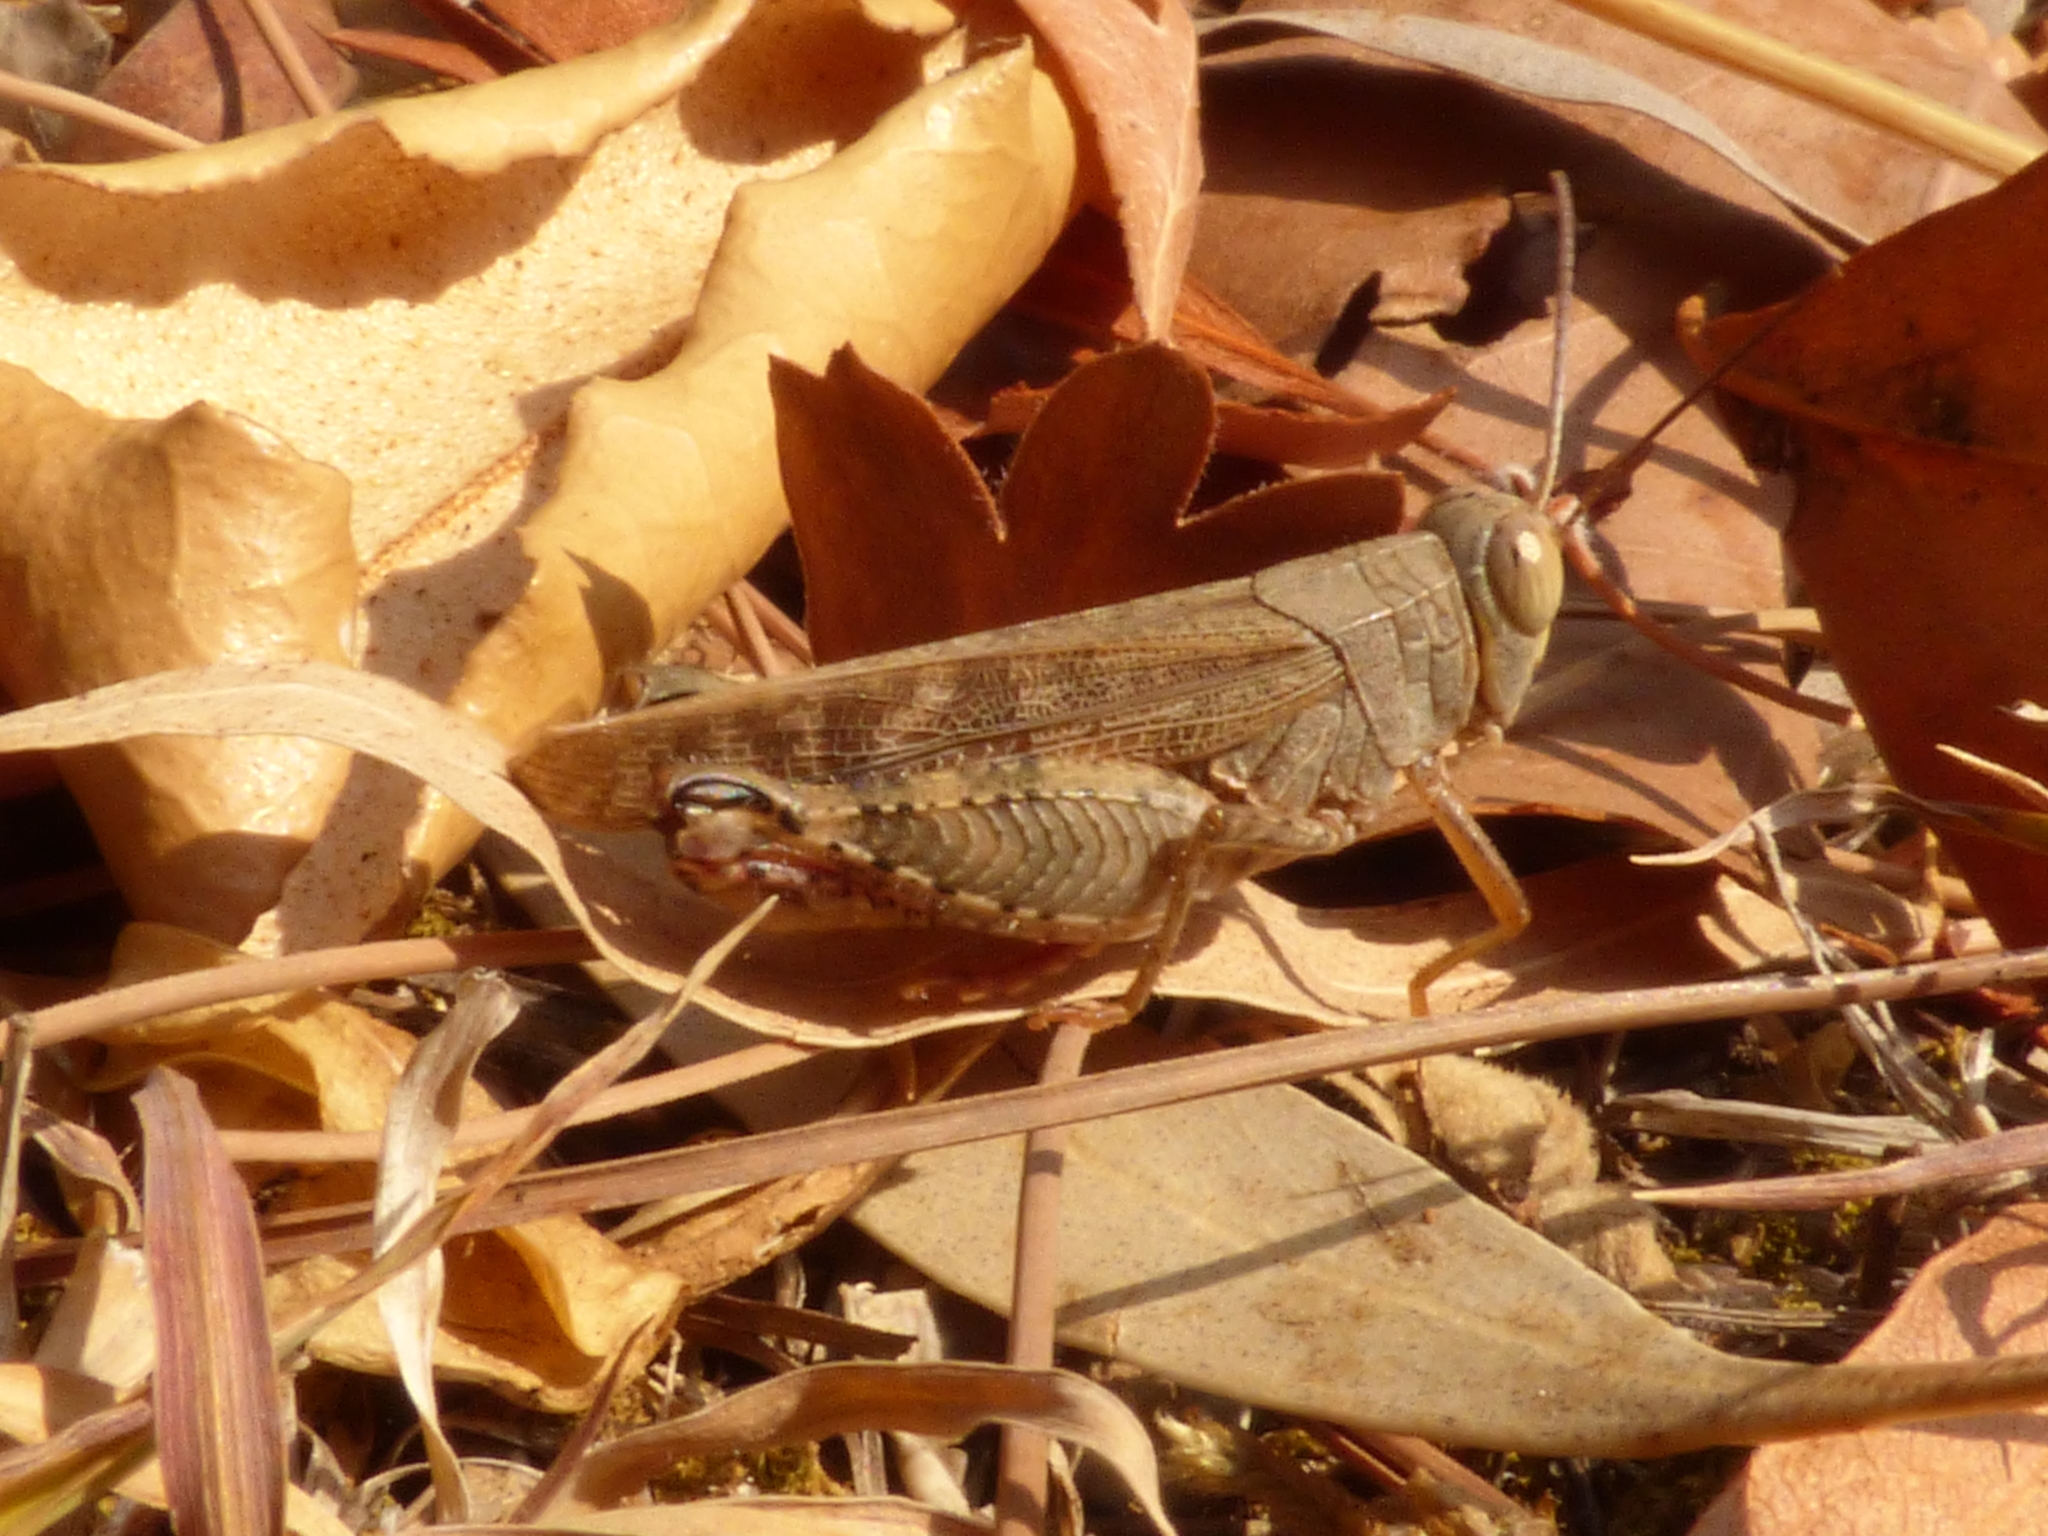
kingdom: Animalia
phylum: Arthropoda
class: Insecta
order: Orthoptera
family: Acrididae
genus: Calliptamus
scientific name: Calliptamus italicus
